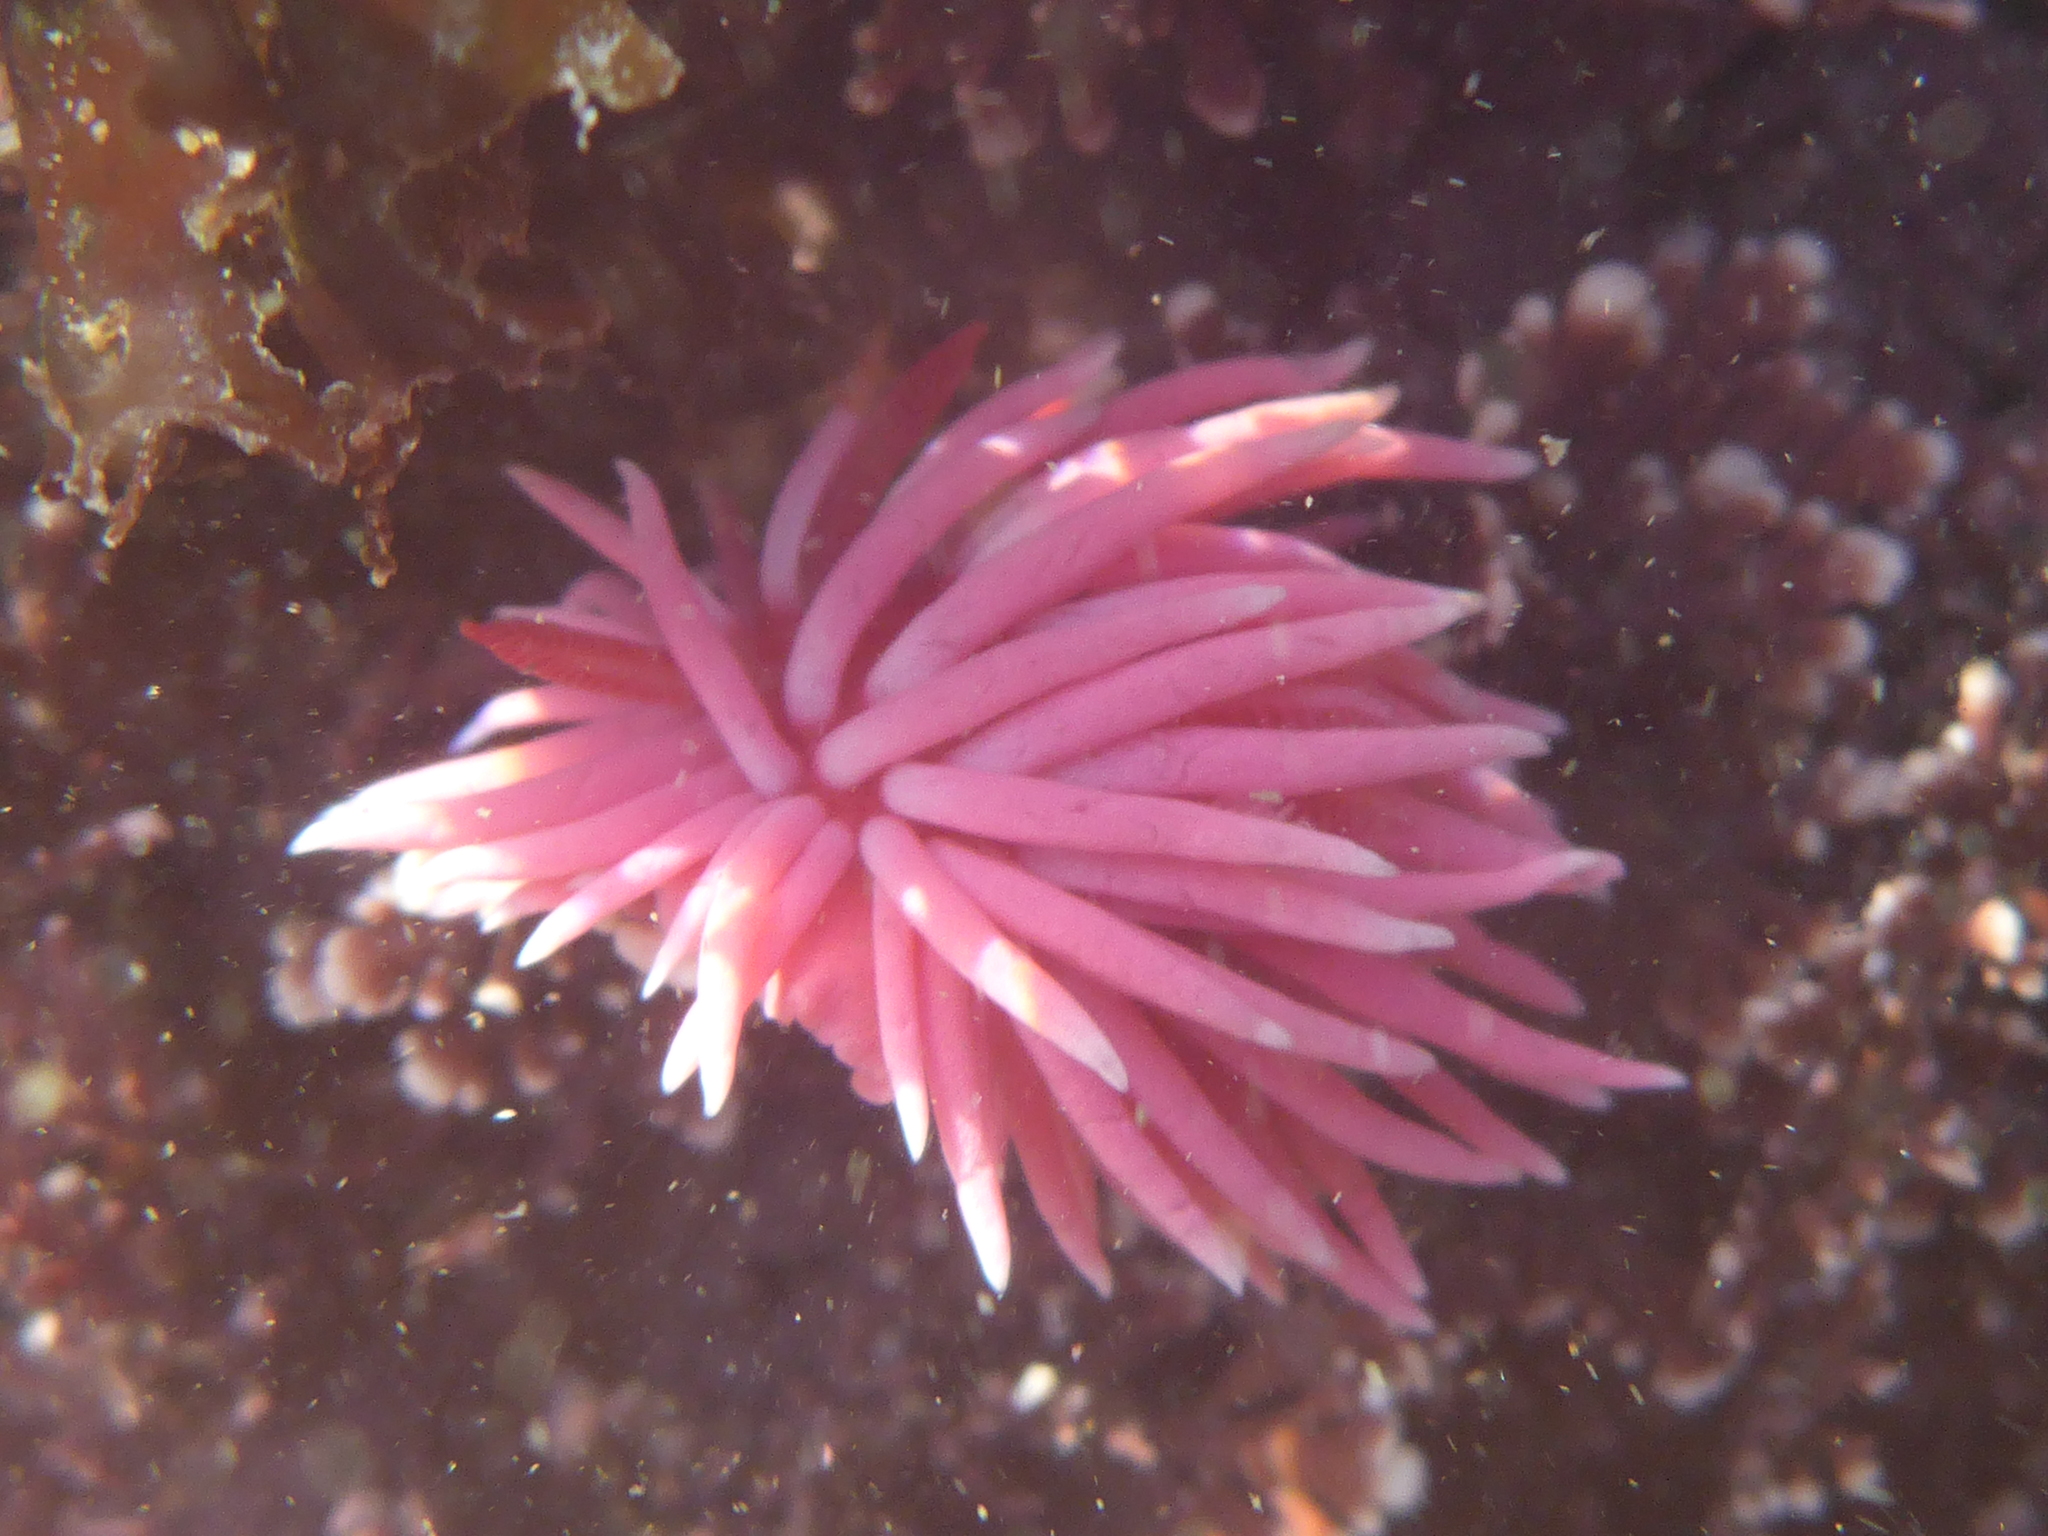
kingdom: Animalia
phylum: Mollusca
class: Gastropoda
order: Nudibranchia
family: Goniodorididae
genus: Okenia
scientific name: Okenia
